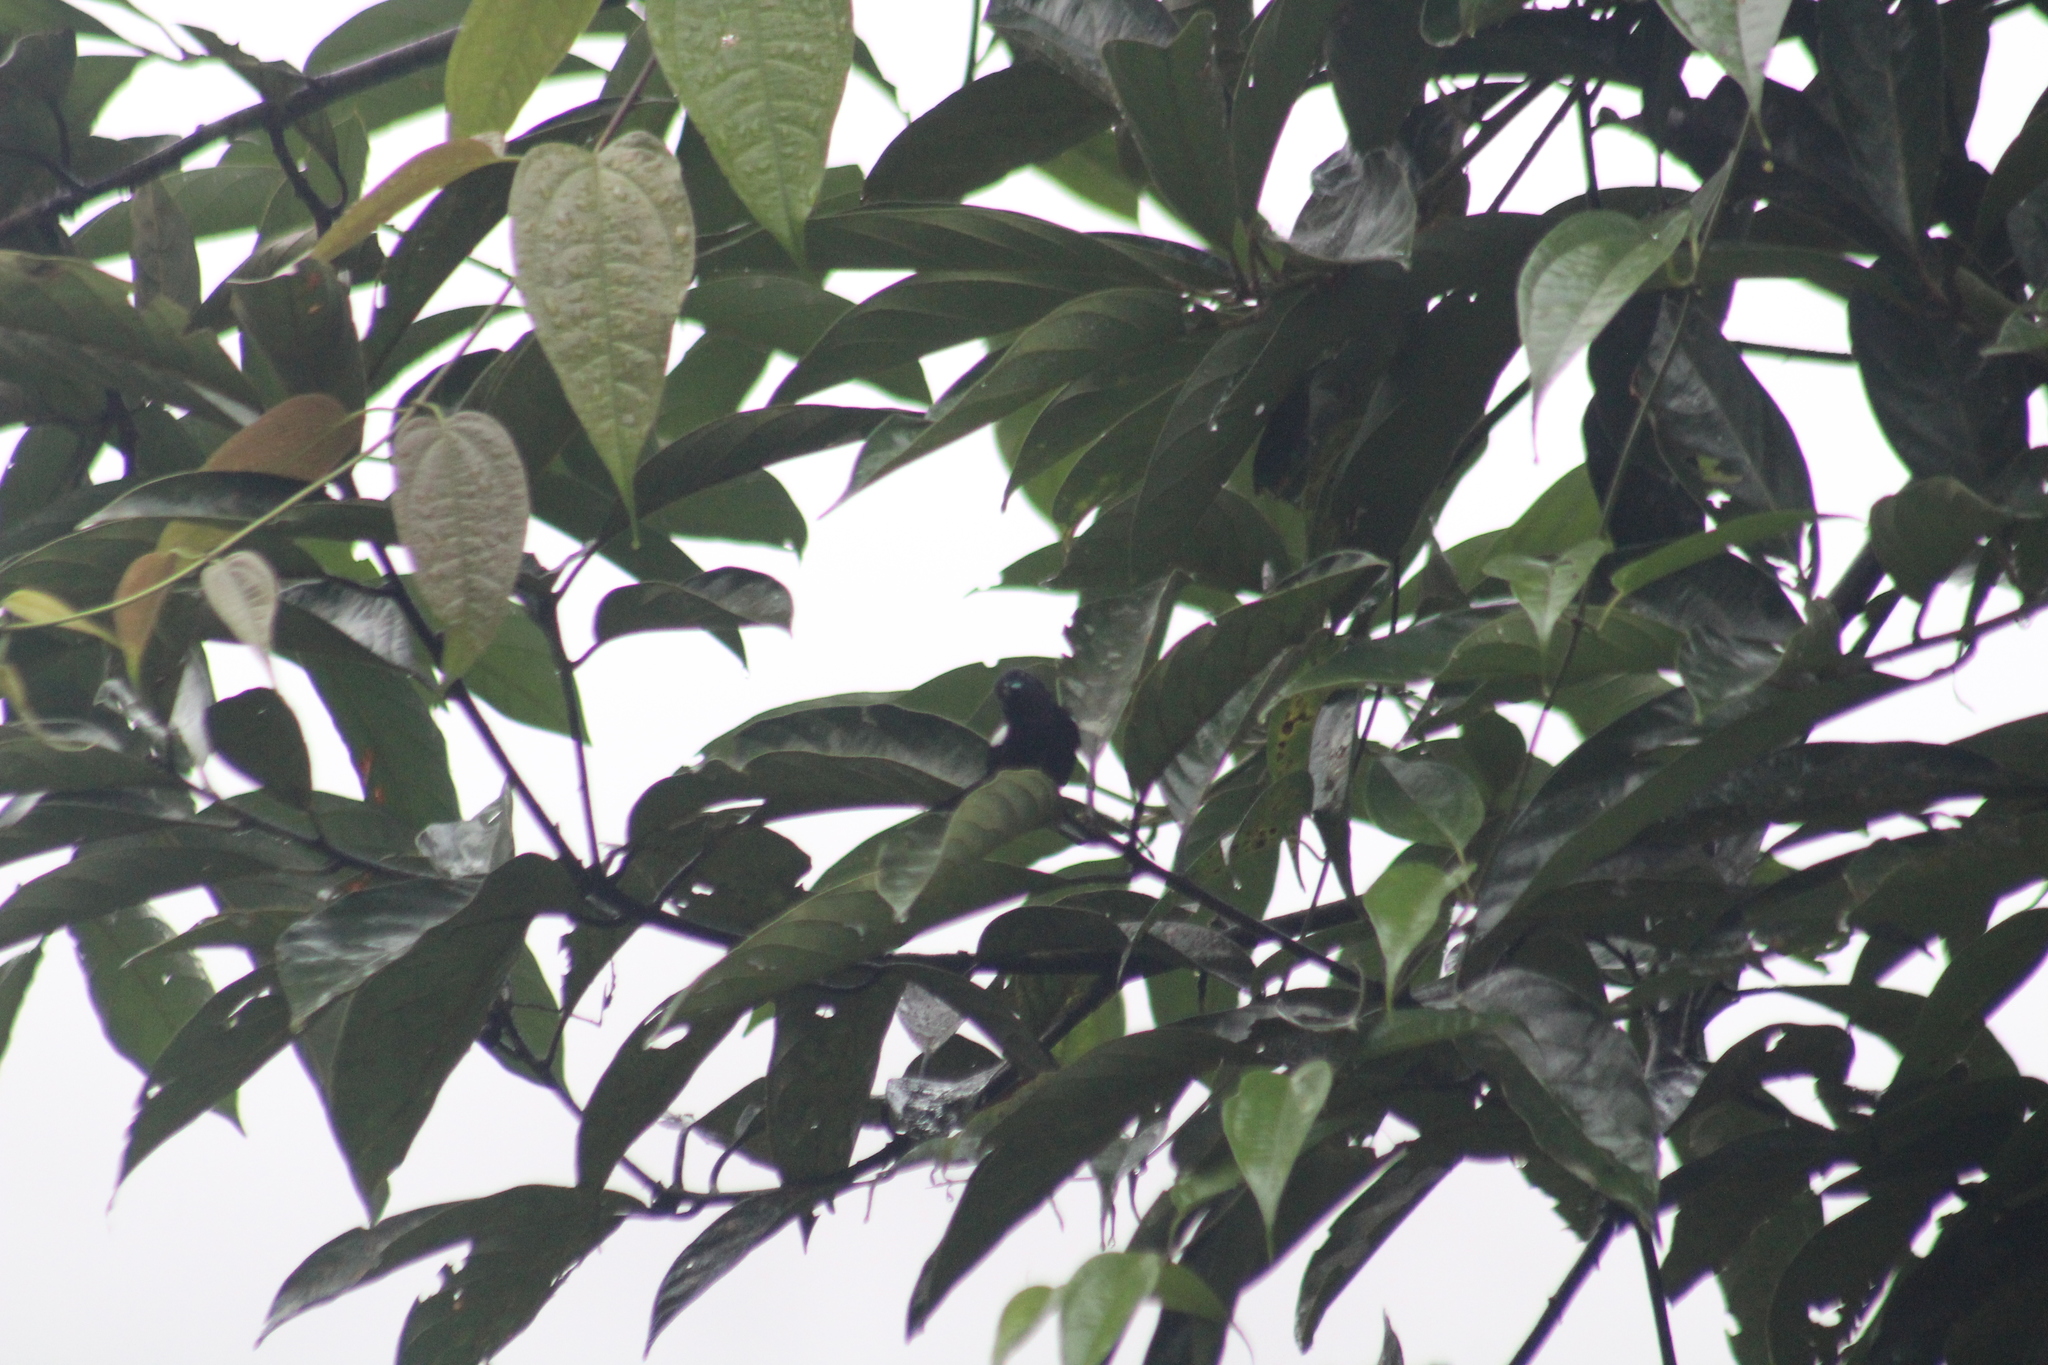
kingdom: Animalia
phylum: Chordata
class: Aves
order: Passeriformes
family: Thraupidae
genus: Loriotus
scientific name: Loriotus luctuosus
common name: White-shouldered tanager
